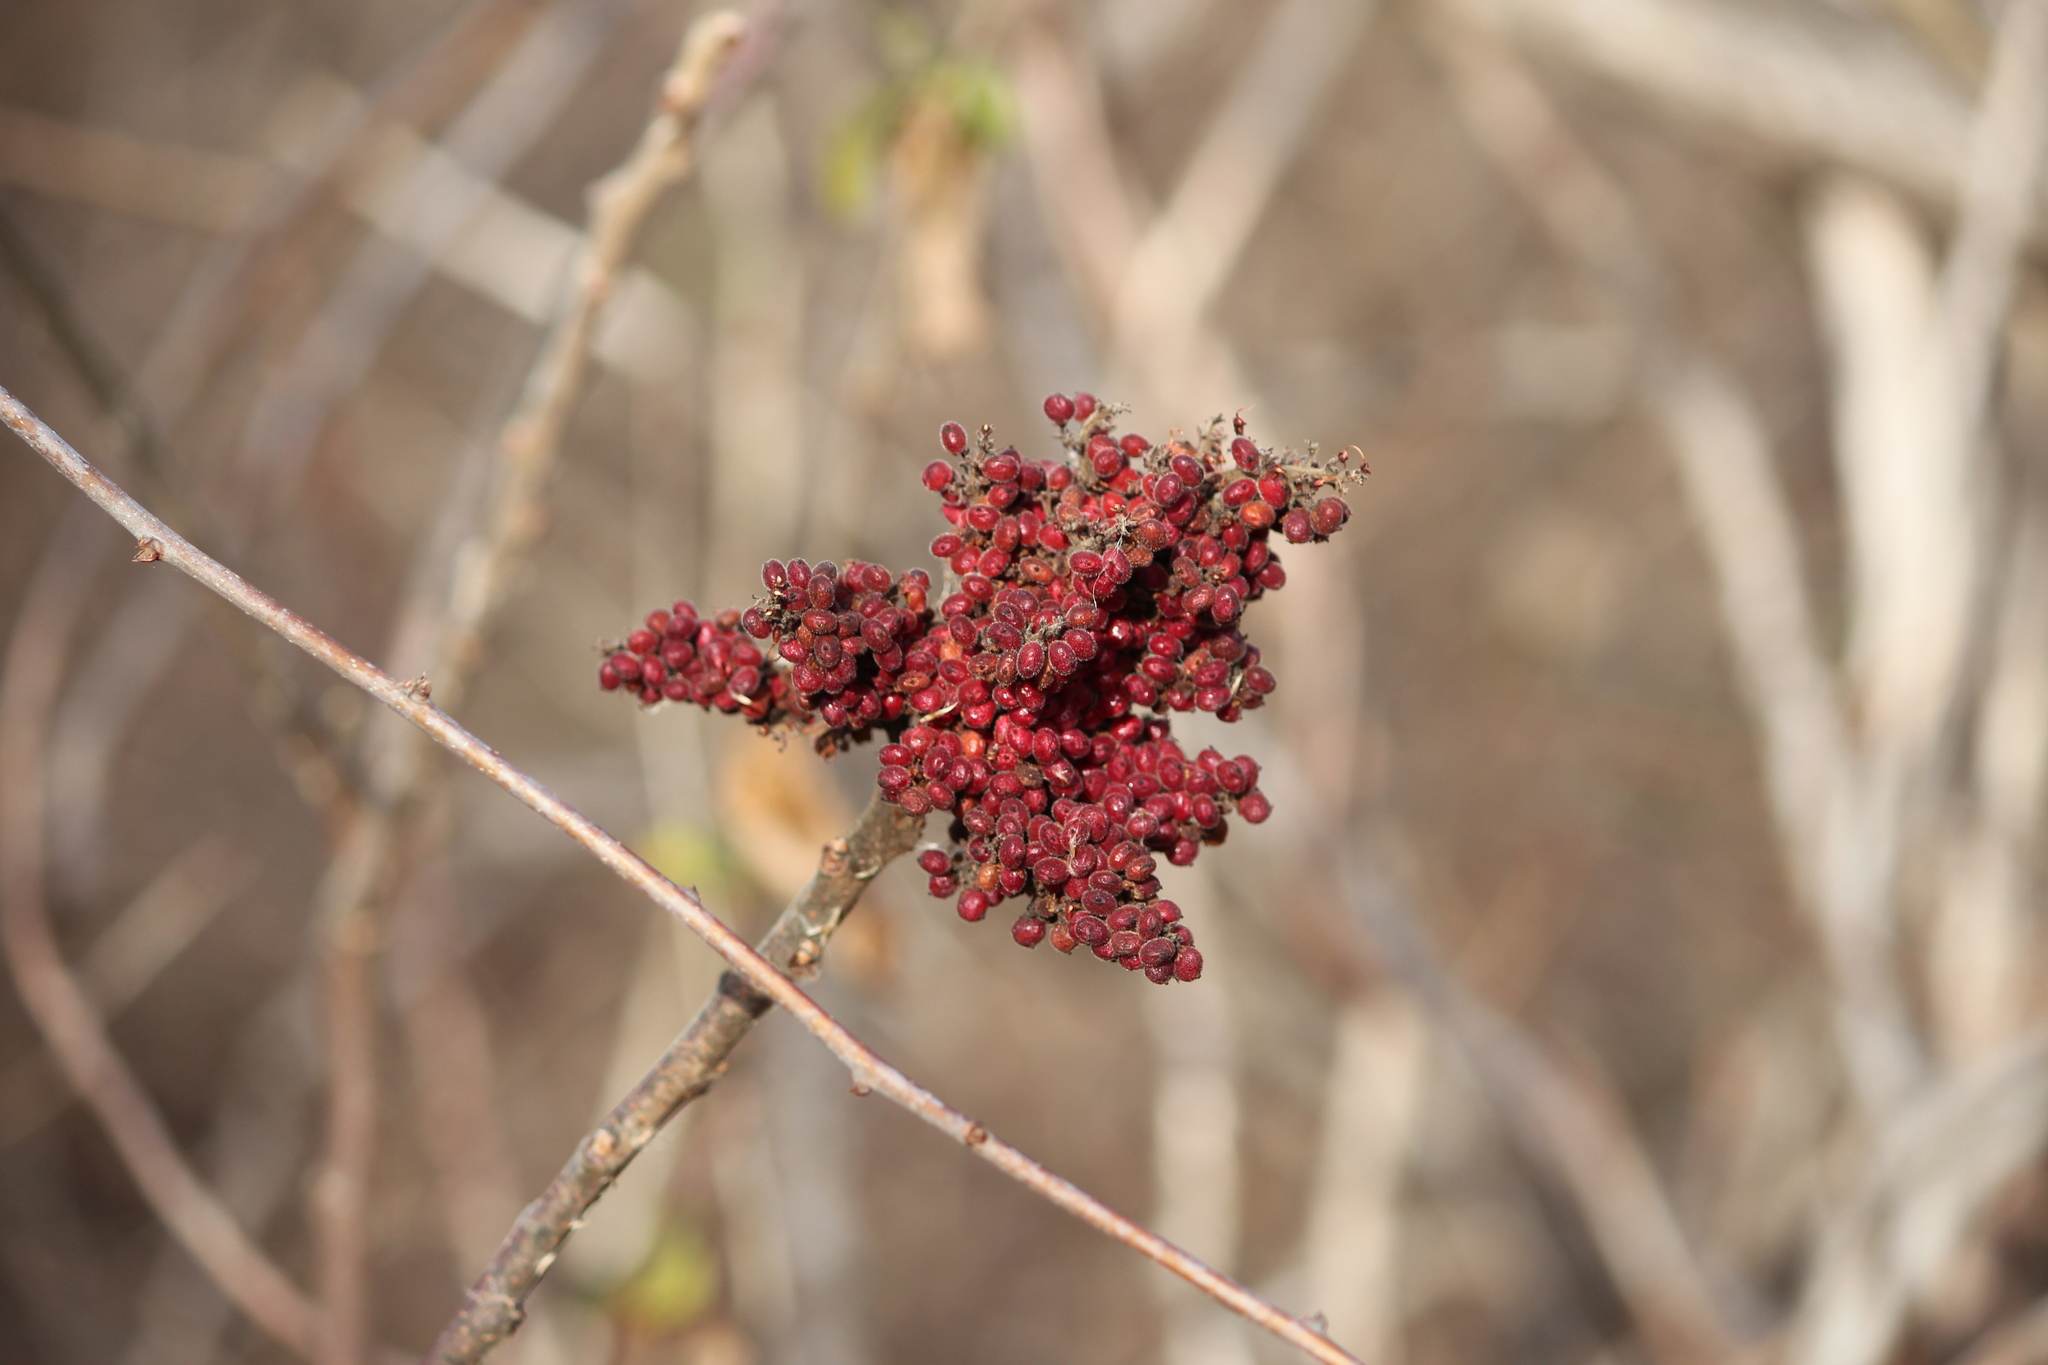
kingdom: Plantae
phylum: Tracheophyta
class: Magnoliopsida
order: Sapindales
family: Anacardiaceae
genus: Rhus
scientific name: Rhus copallina
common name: Shining sumac
